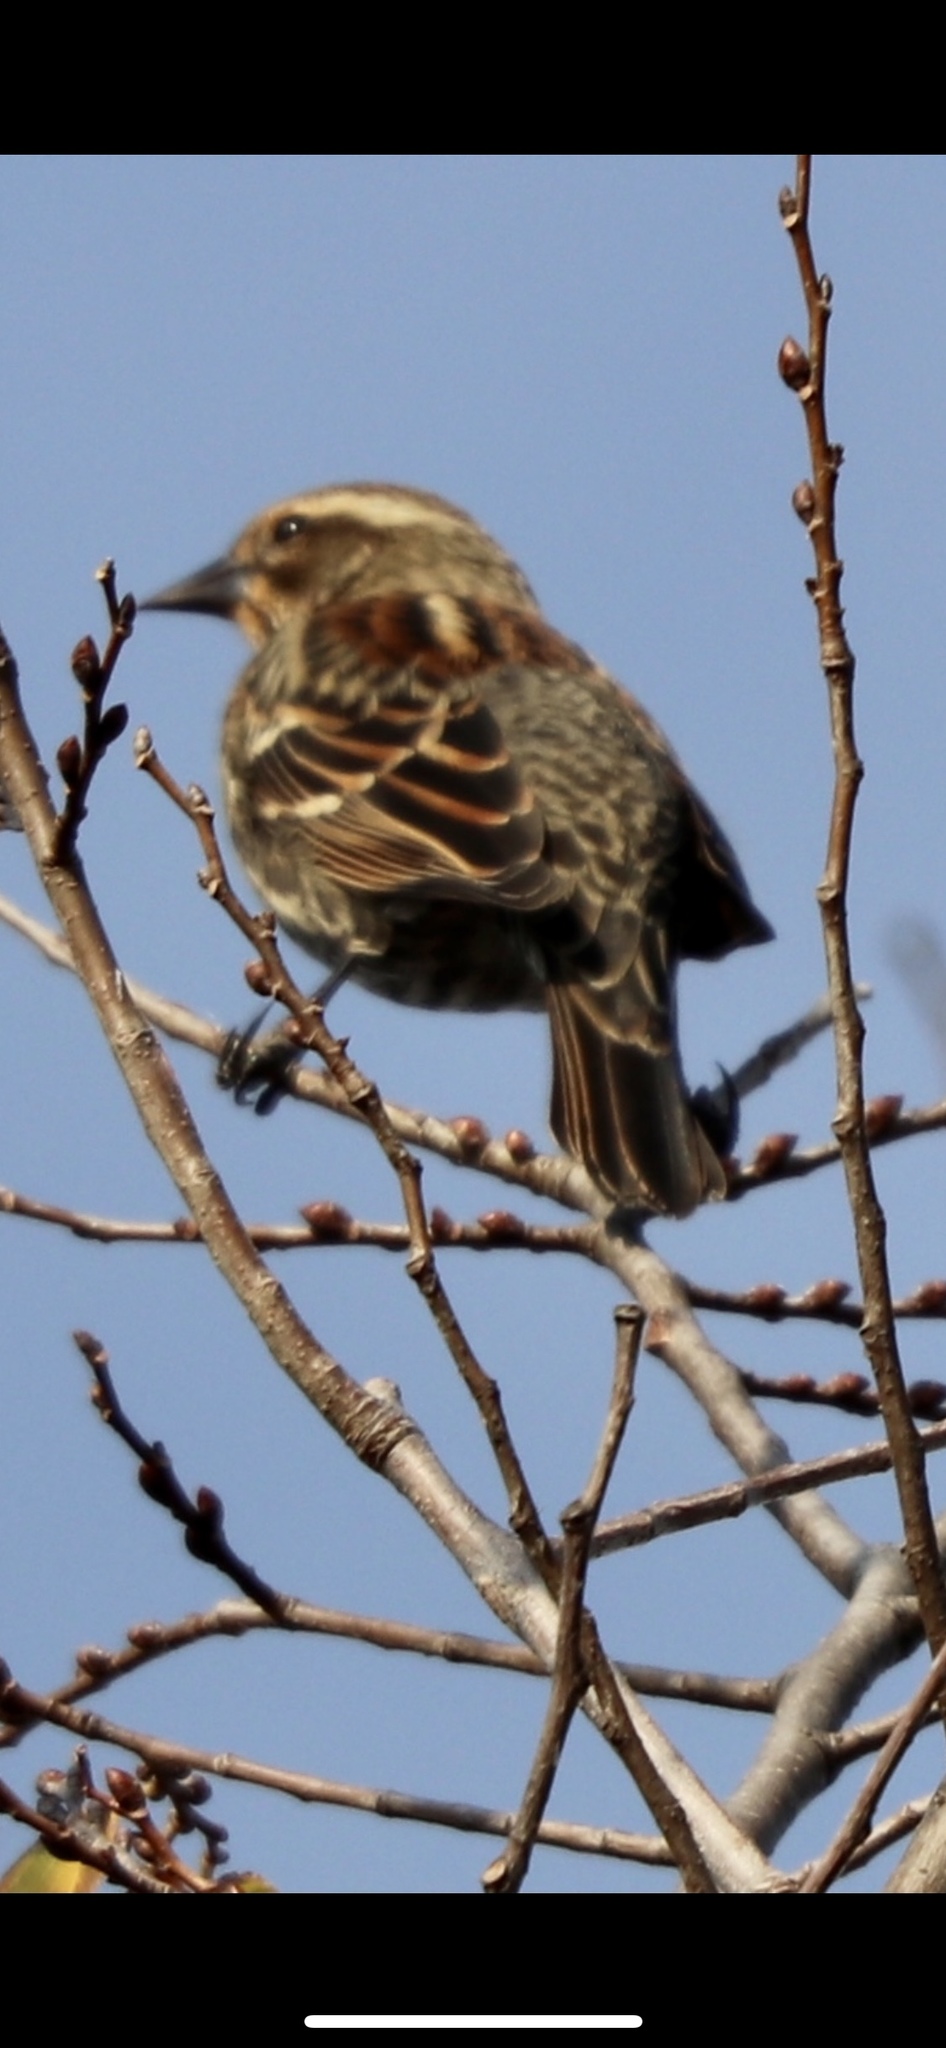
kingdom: Animalia
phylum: Chordata
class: Aves
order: Passeriformes
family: Icteridae
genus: Agelaius
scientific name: Agelaius phoeniceus
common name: Red-winged blackbird
